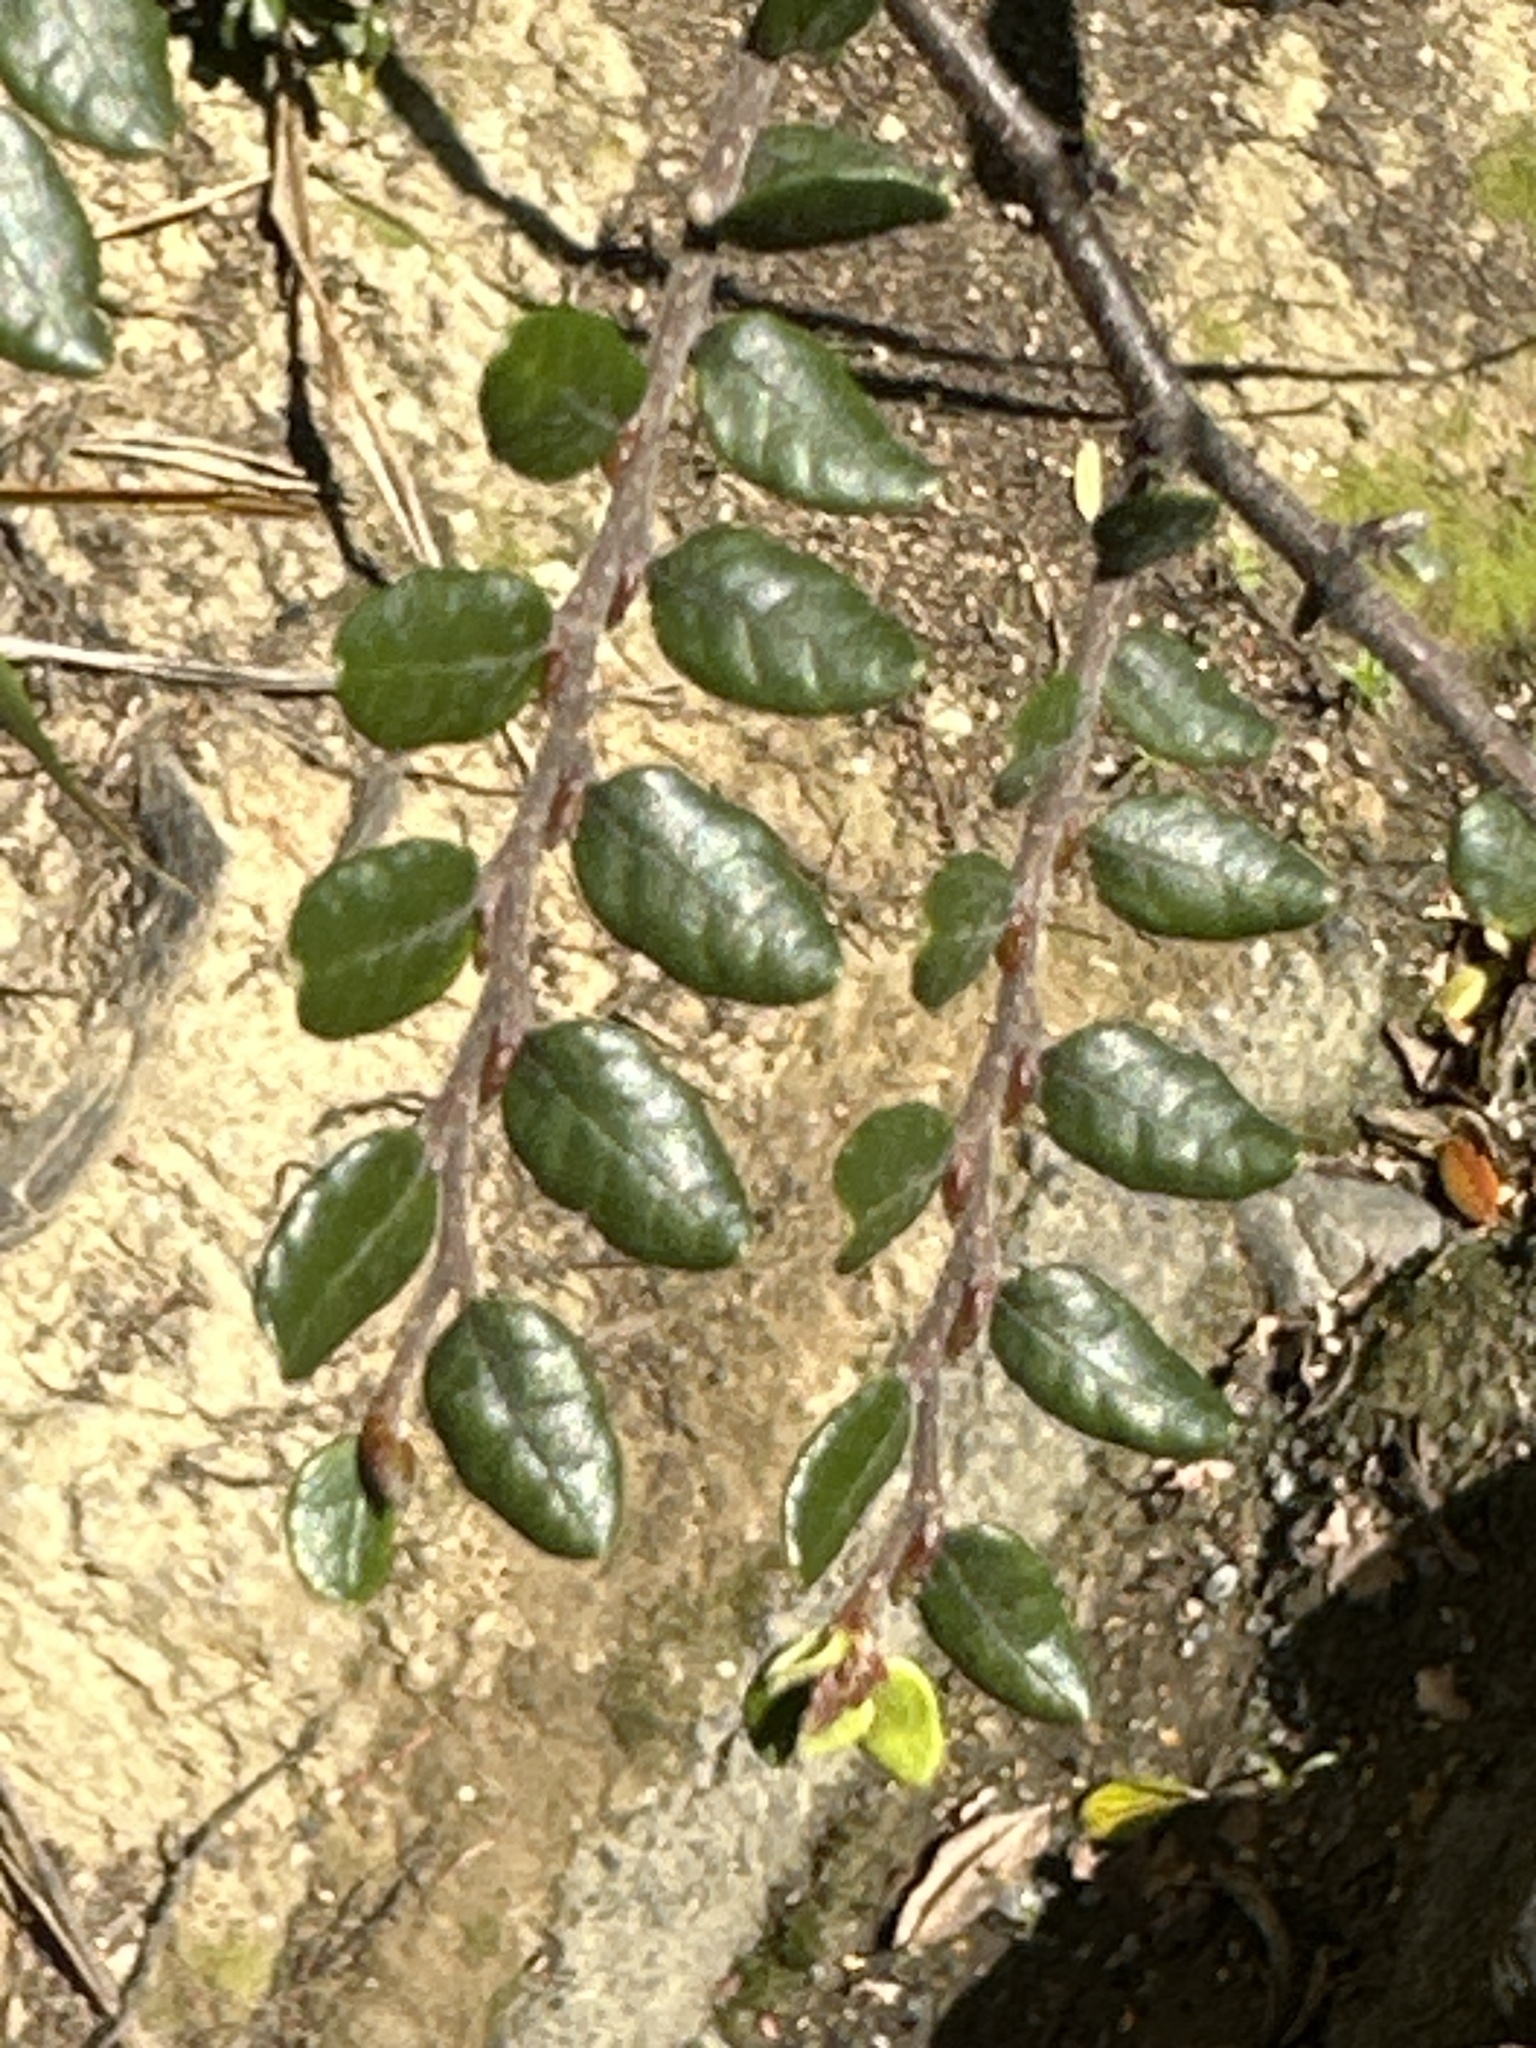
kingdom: Plantae
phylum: Tracheophyta
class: Magnoliopsida
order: Fagales
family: Nothofagaceae
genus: Nothofagus
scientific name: Nothofagus solandri
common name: Black beech
